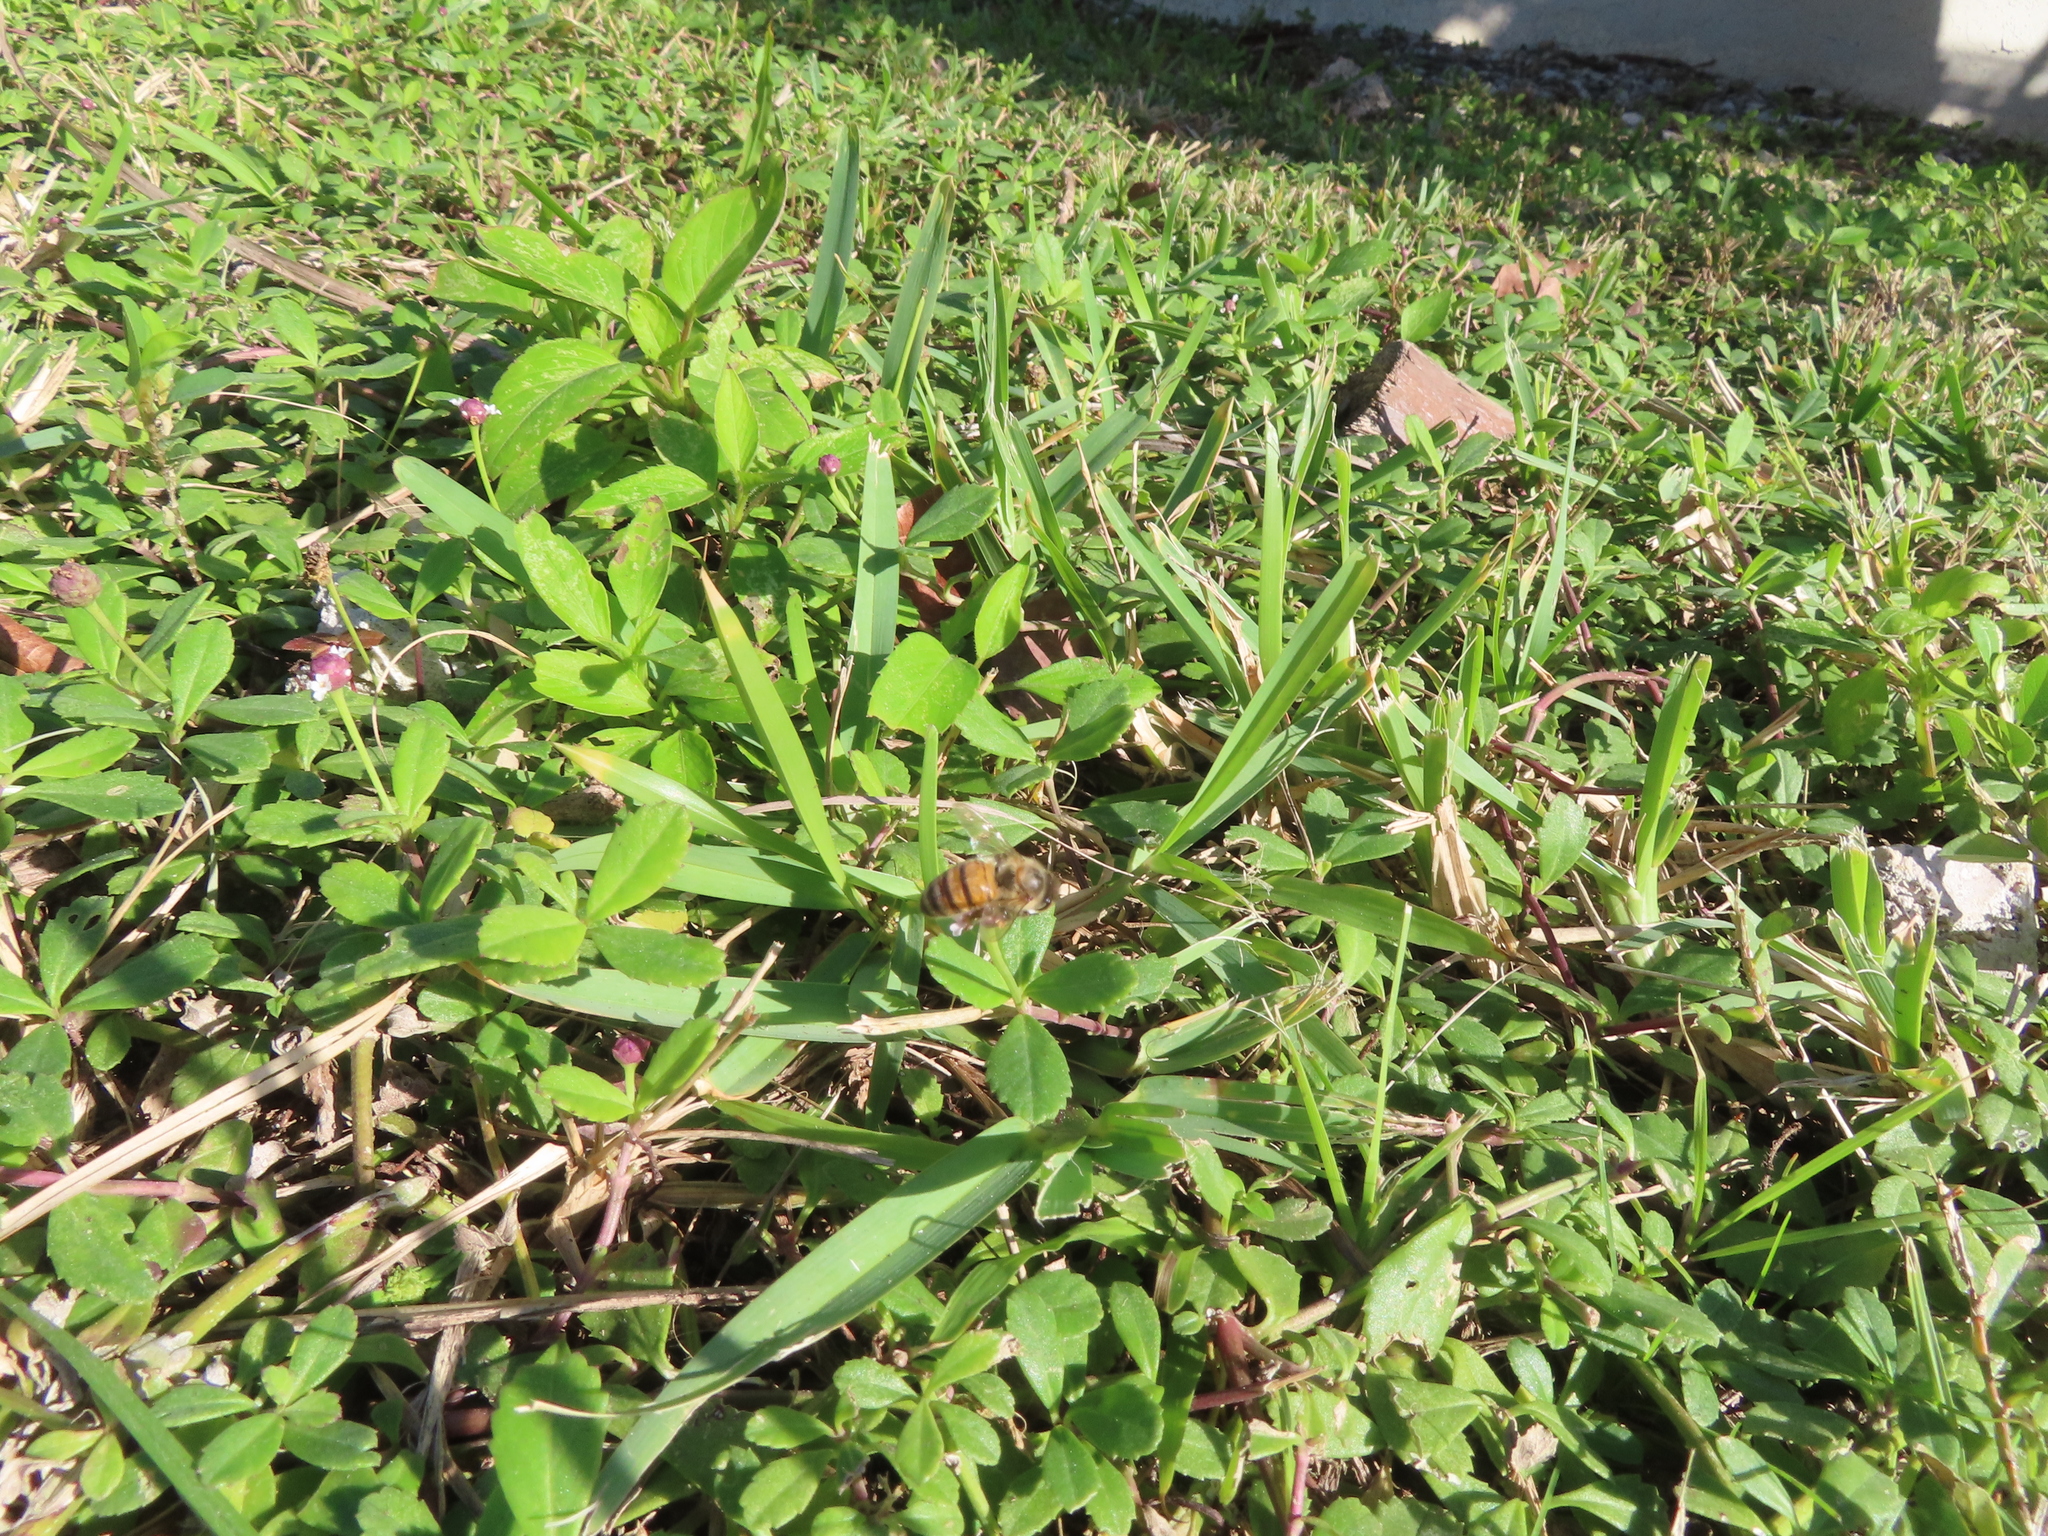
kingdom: Animalia
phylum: Arthropoda
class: Insecta
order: Hymenoptera
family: Apidae
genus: Apis
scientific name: Apis mellifera
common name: Honey bee
